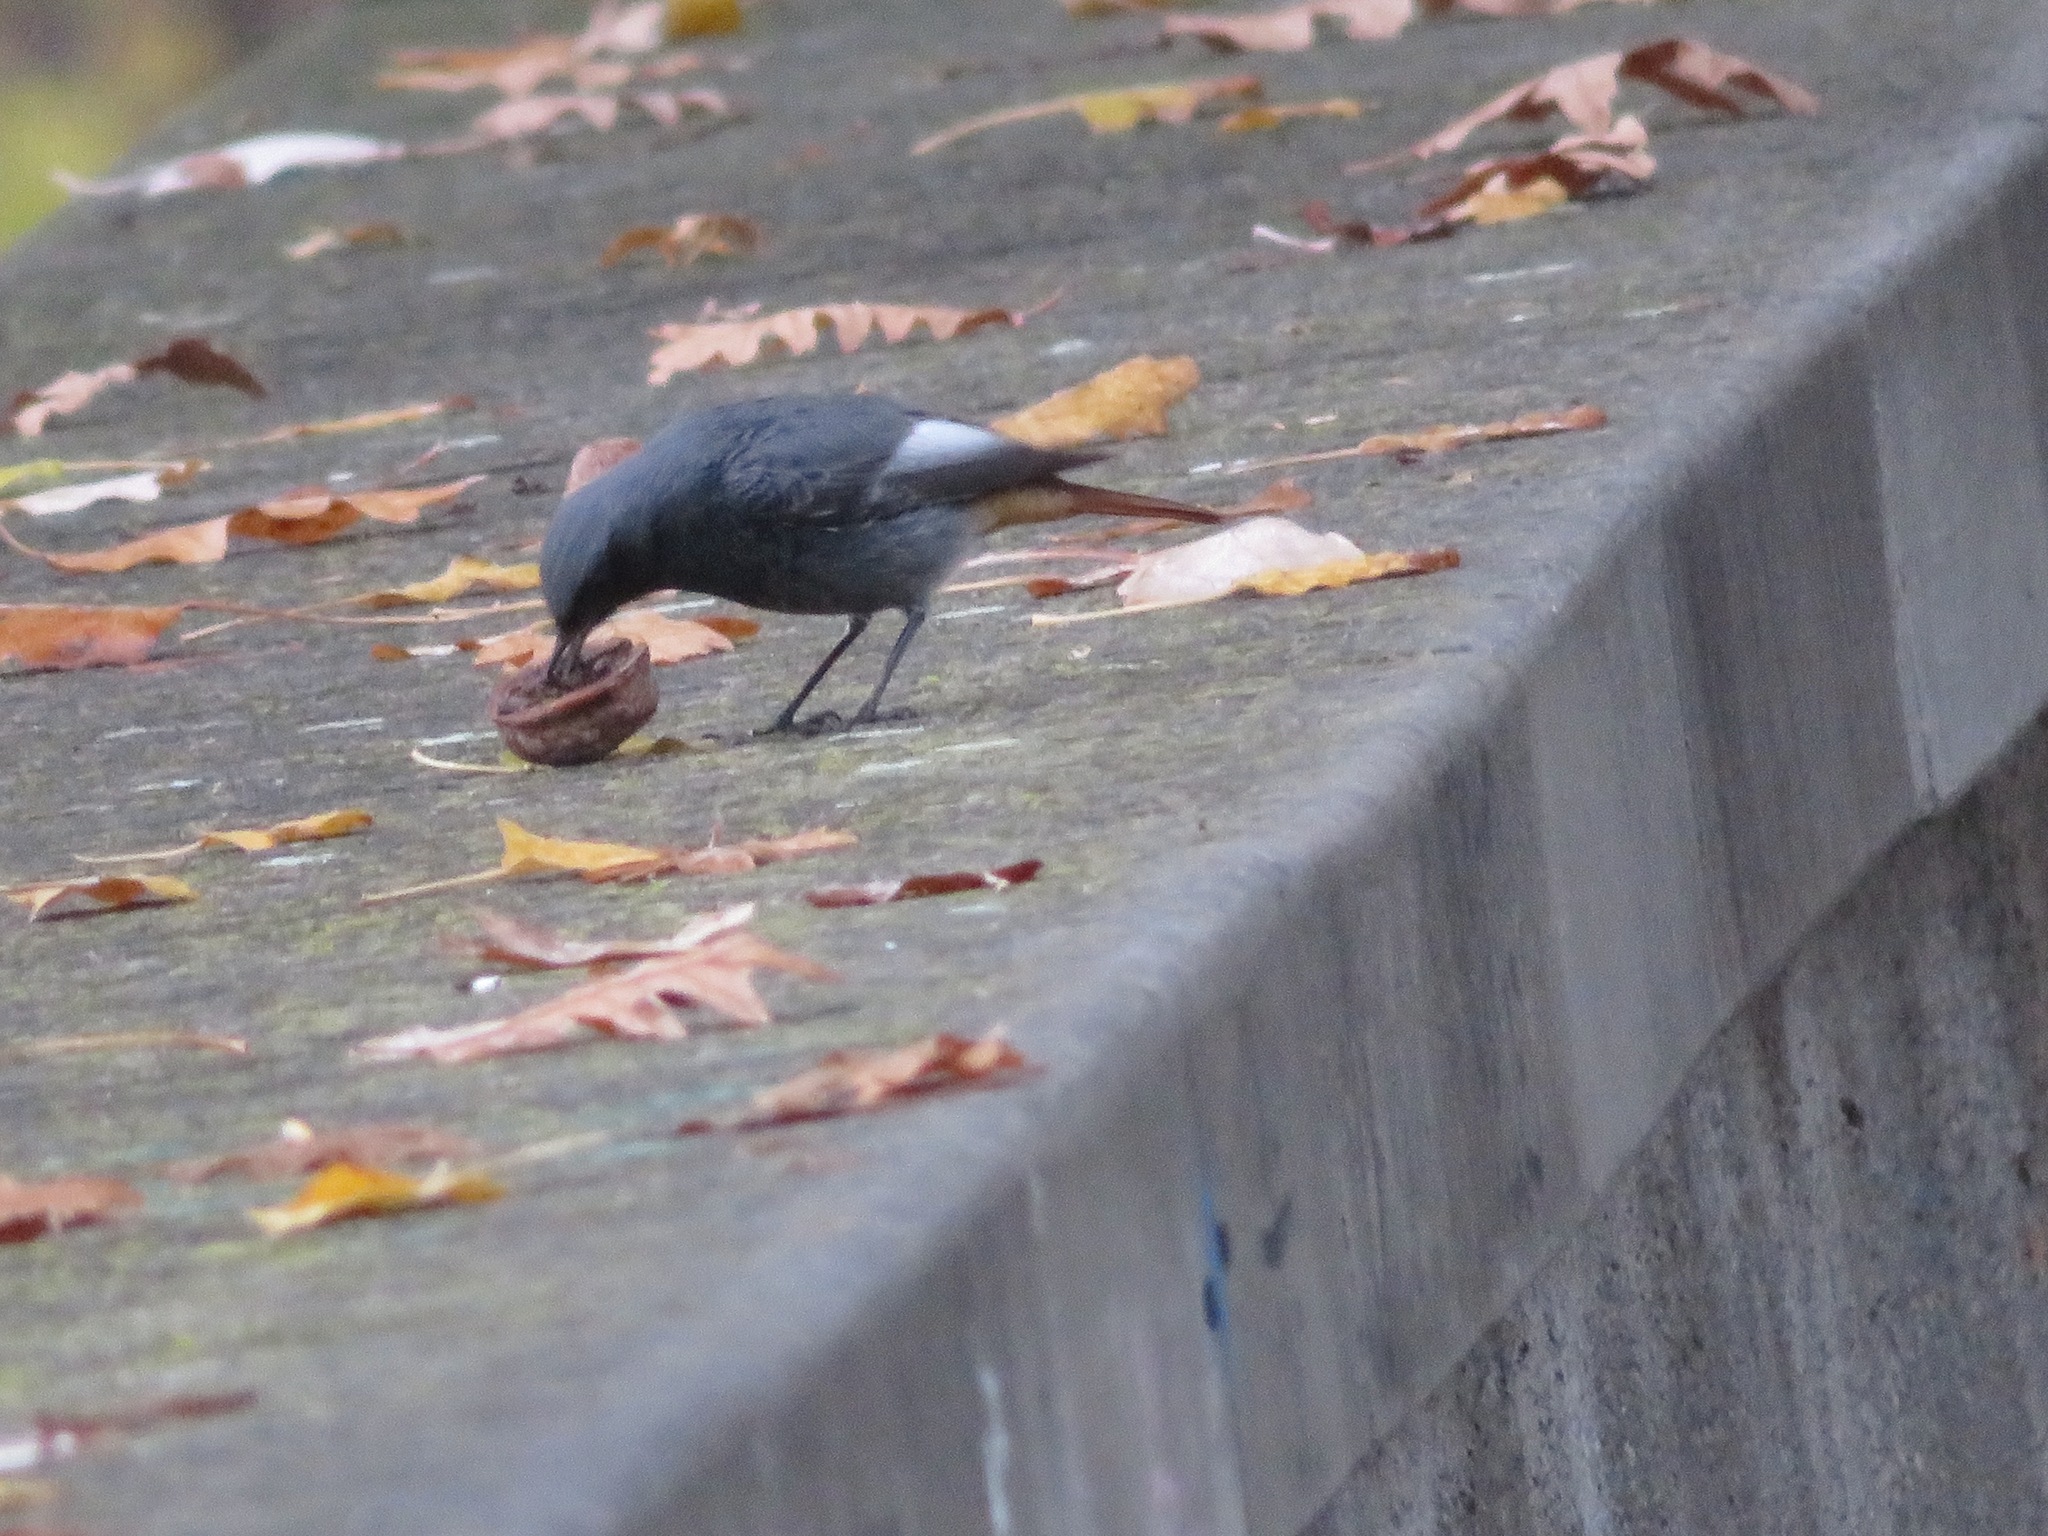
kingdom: Animalia
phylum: Chordata
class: Aves
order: Passeriformes
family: Muscicapidae
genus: Phoenicurus
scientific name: Phoenicurus ochruros
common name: Black redstart
